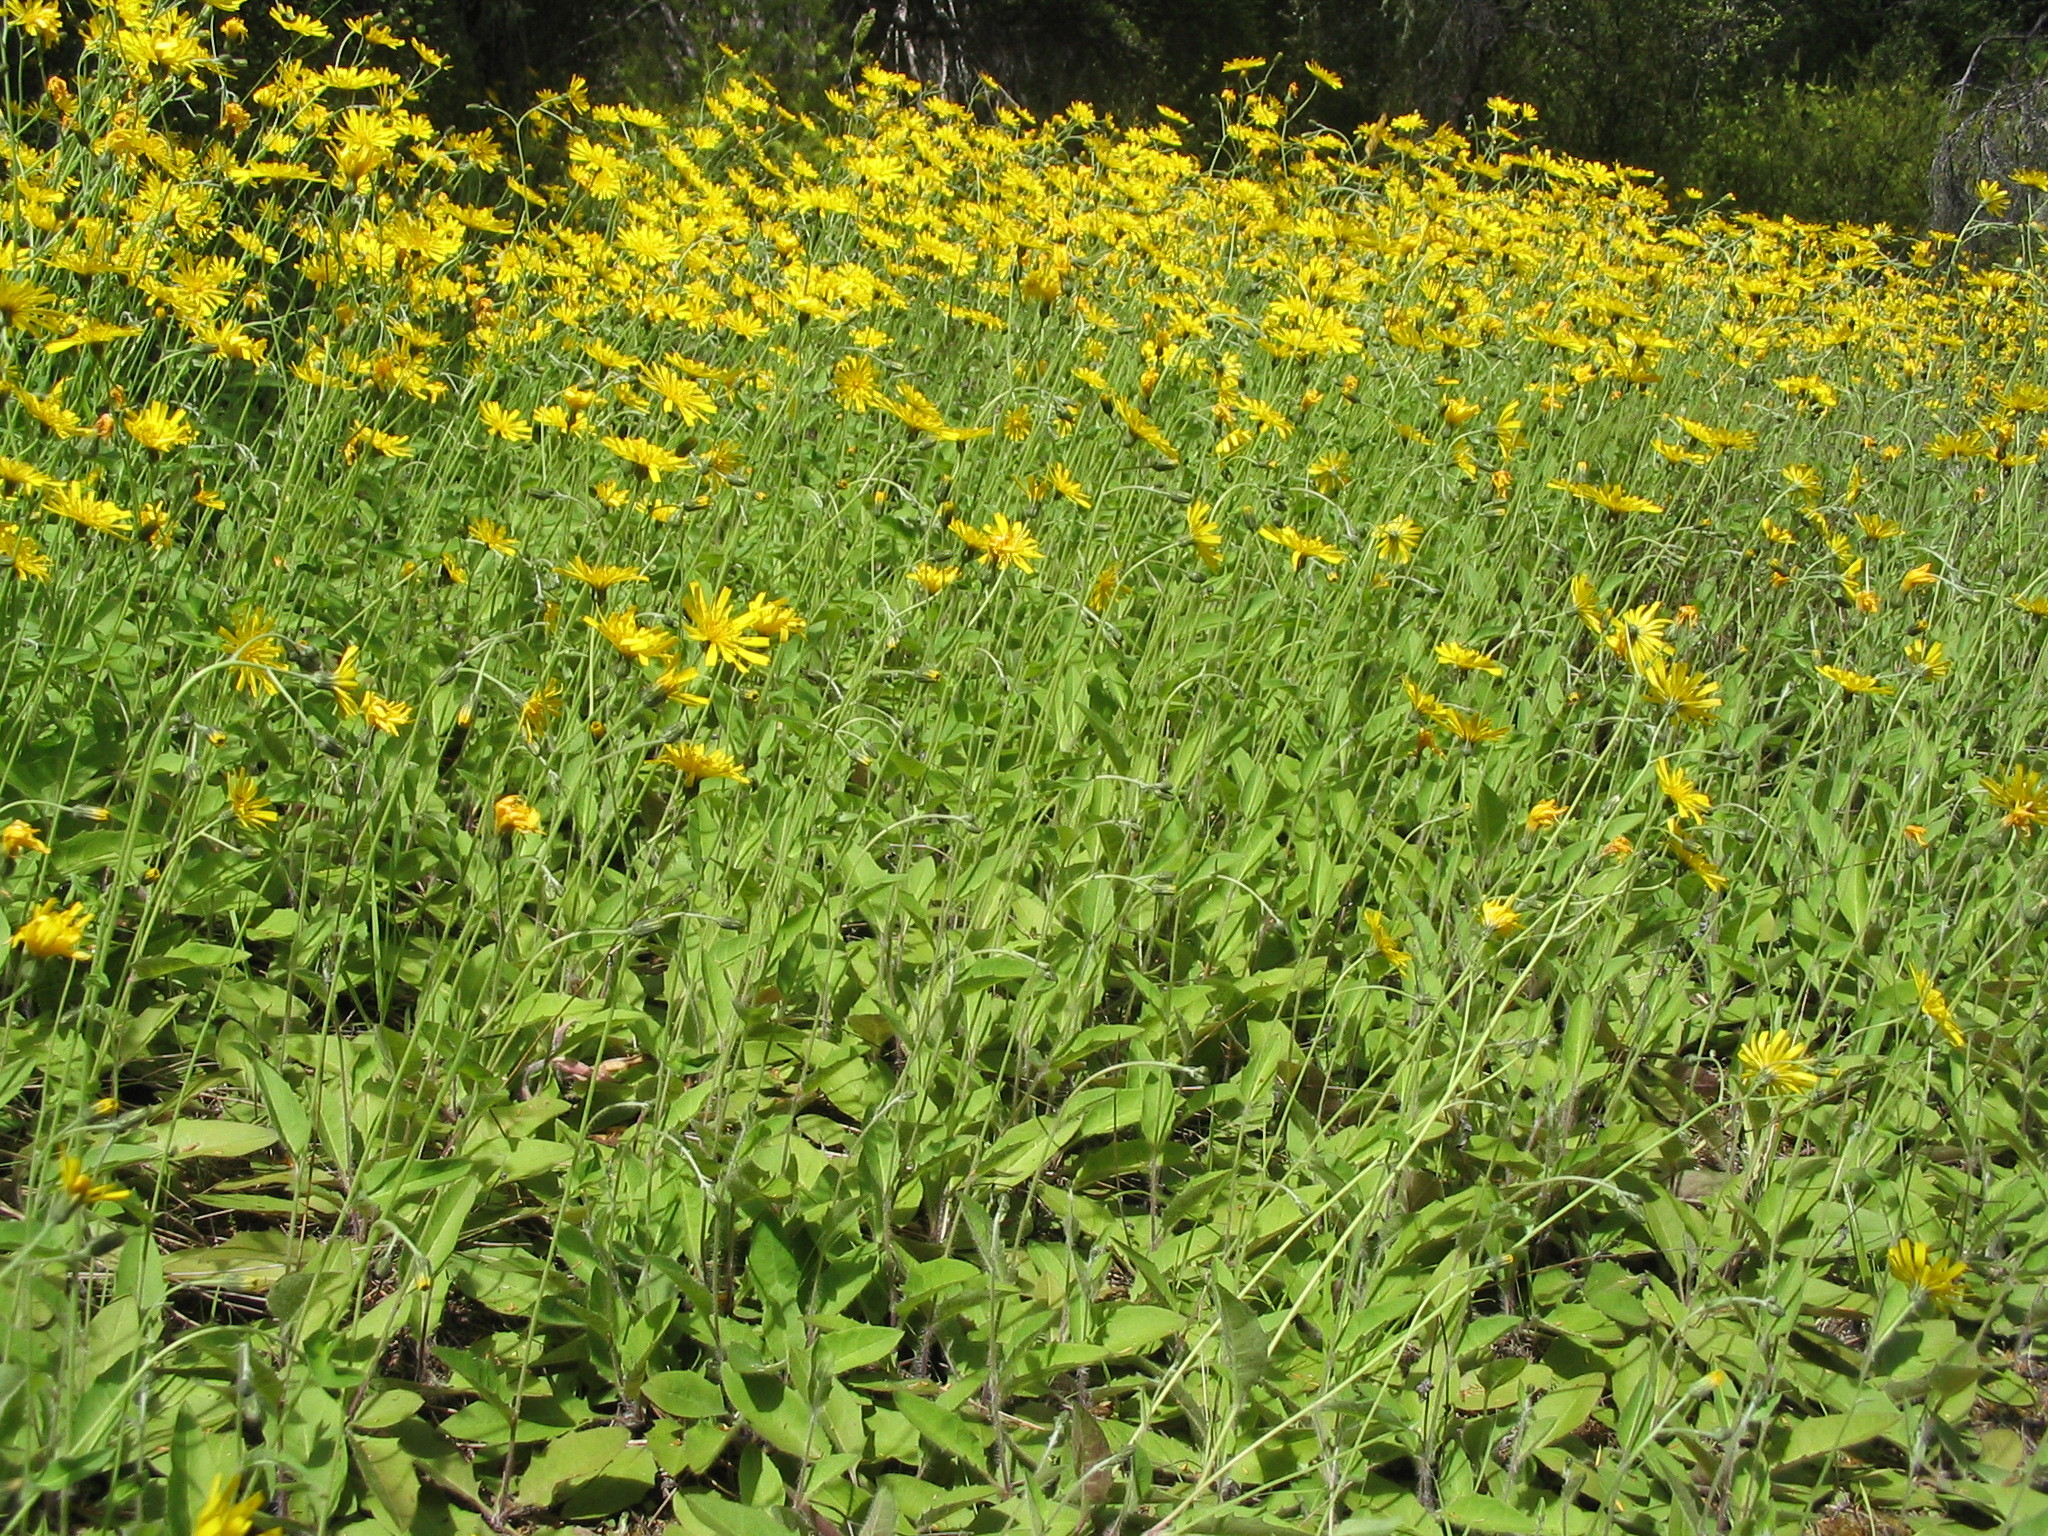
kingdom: Plantae
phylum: Tracheophyta
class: Magnoliopsida
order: Asterales
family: Asteraceae
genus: Hieracium
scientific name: Hieracium lepidulum
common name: Irregular-toothed hawkweed
